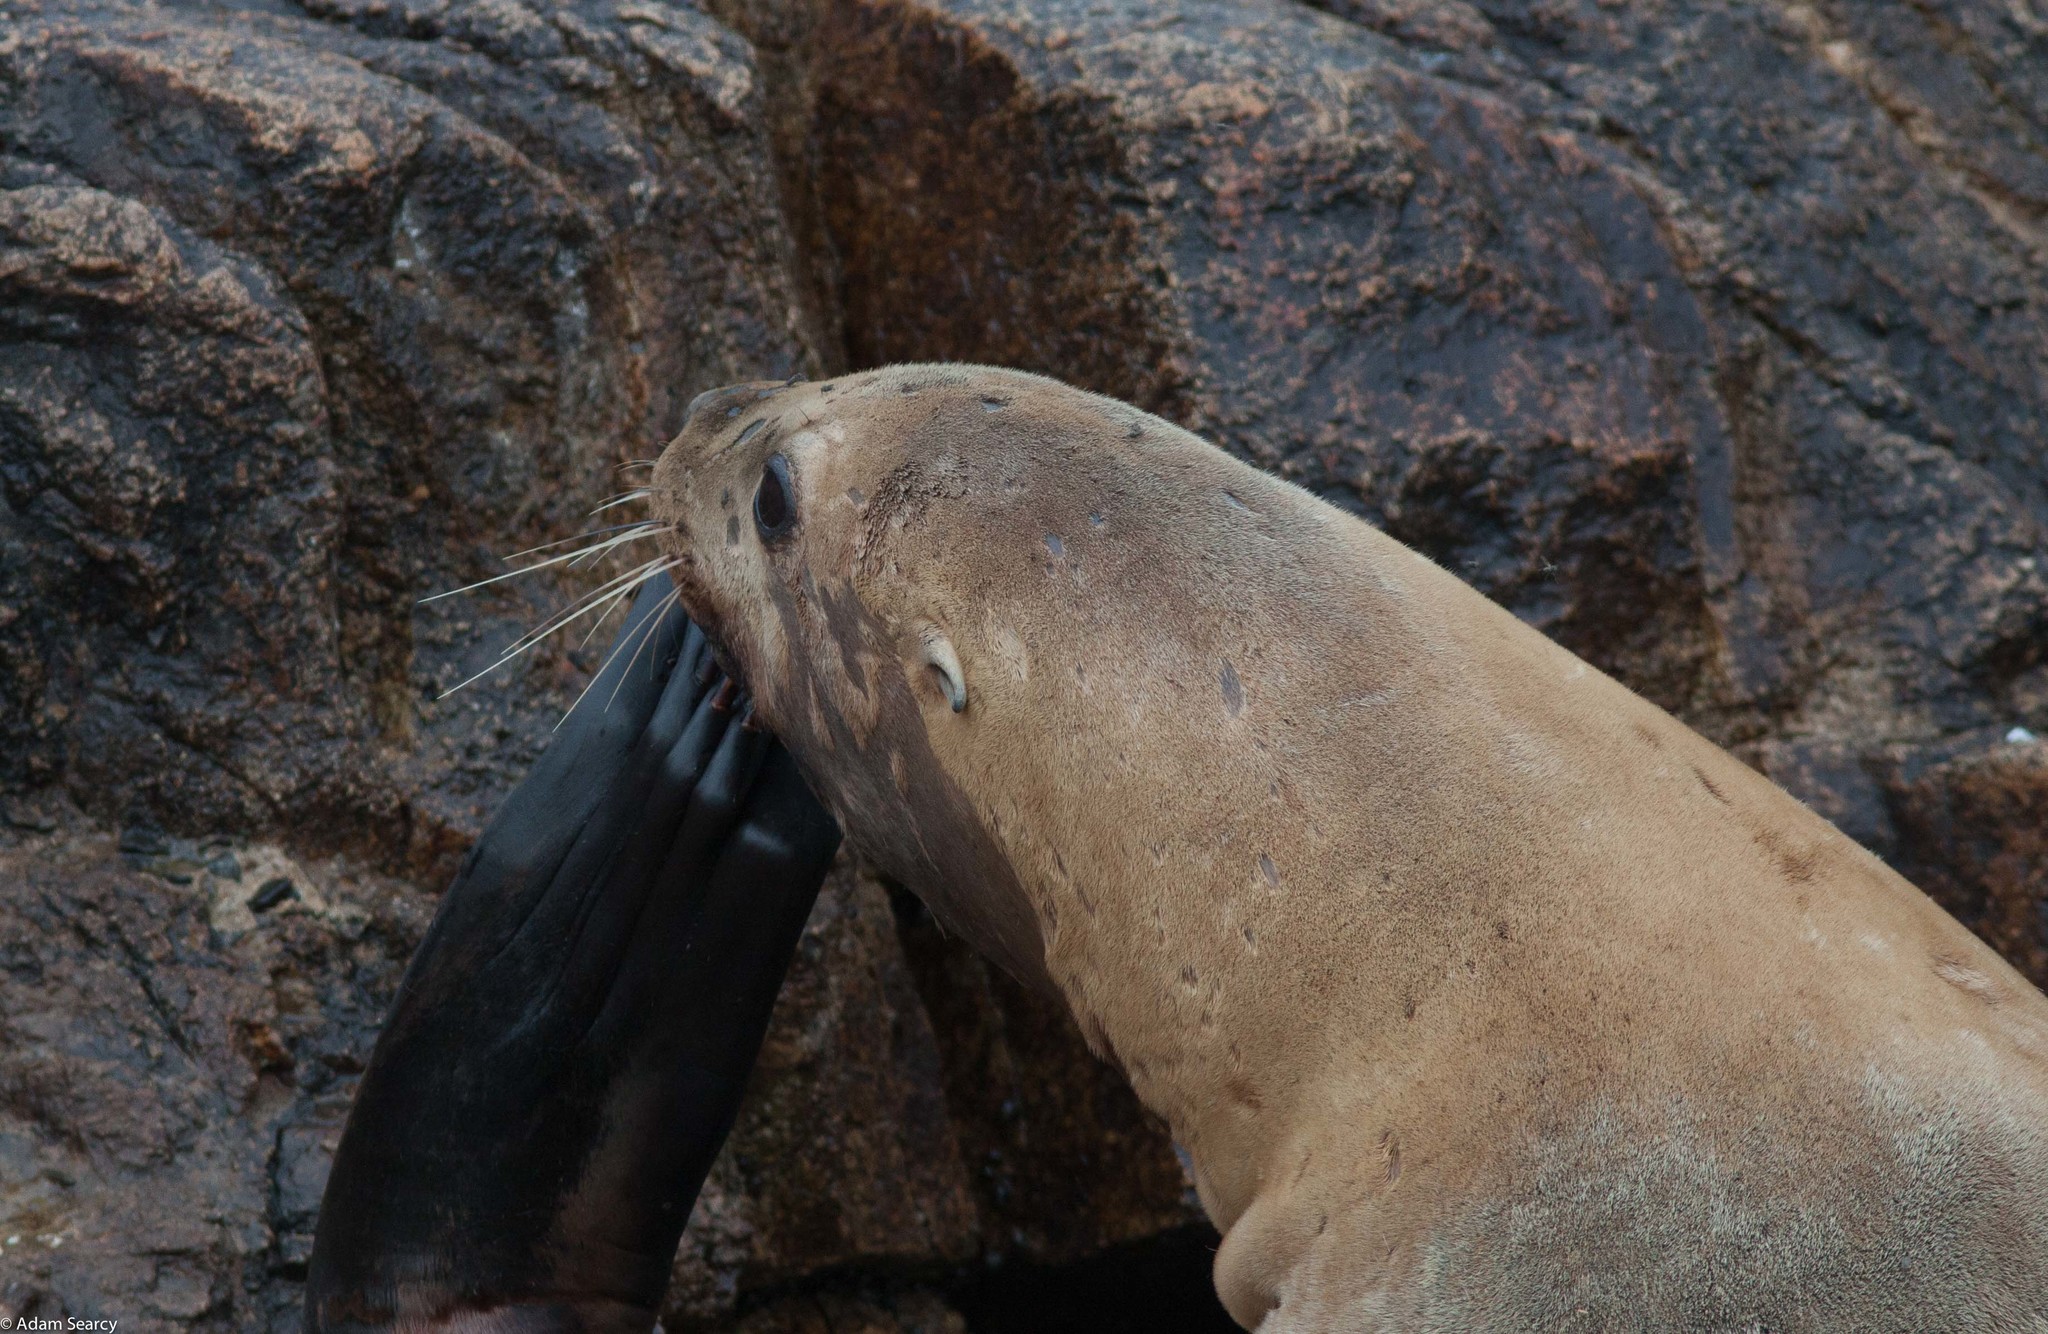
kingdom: Animalia
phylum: Chordata
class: Mammalia
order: Carnivora
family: Otariidae
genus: Eumetopias
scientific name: Eumetopias jubatus
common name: Steller sea lion
